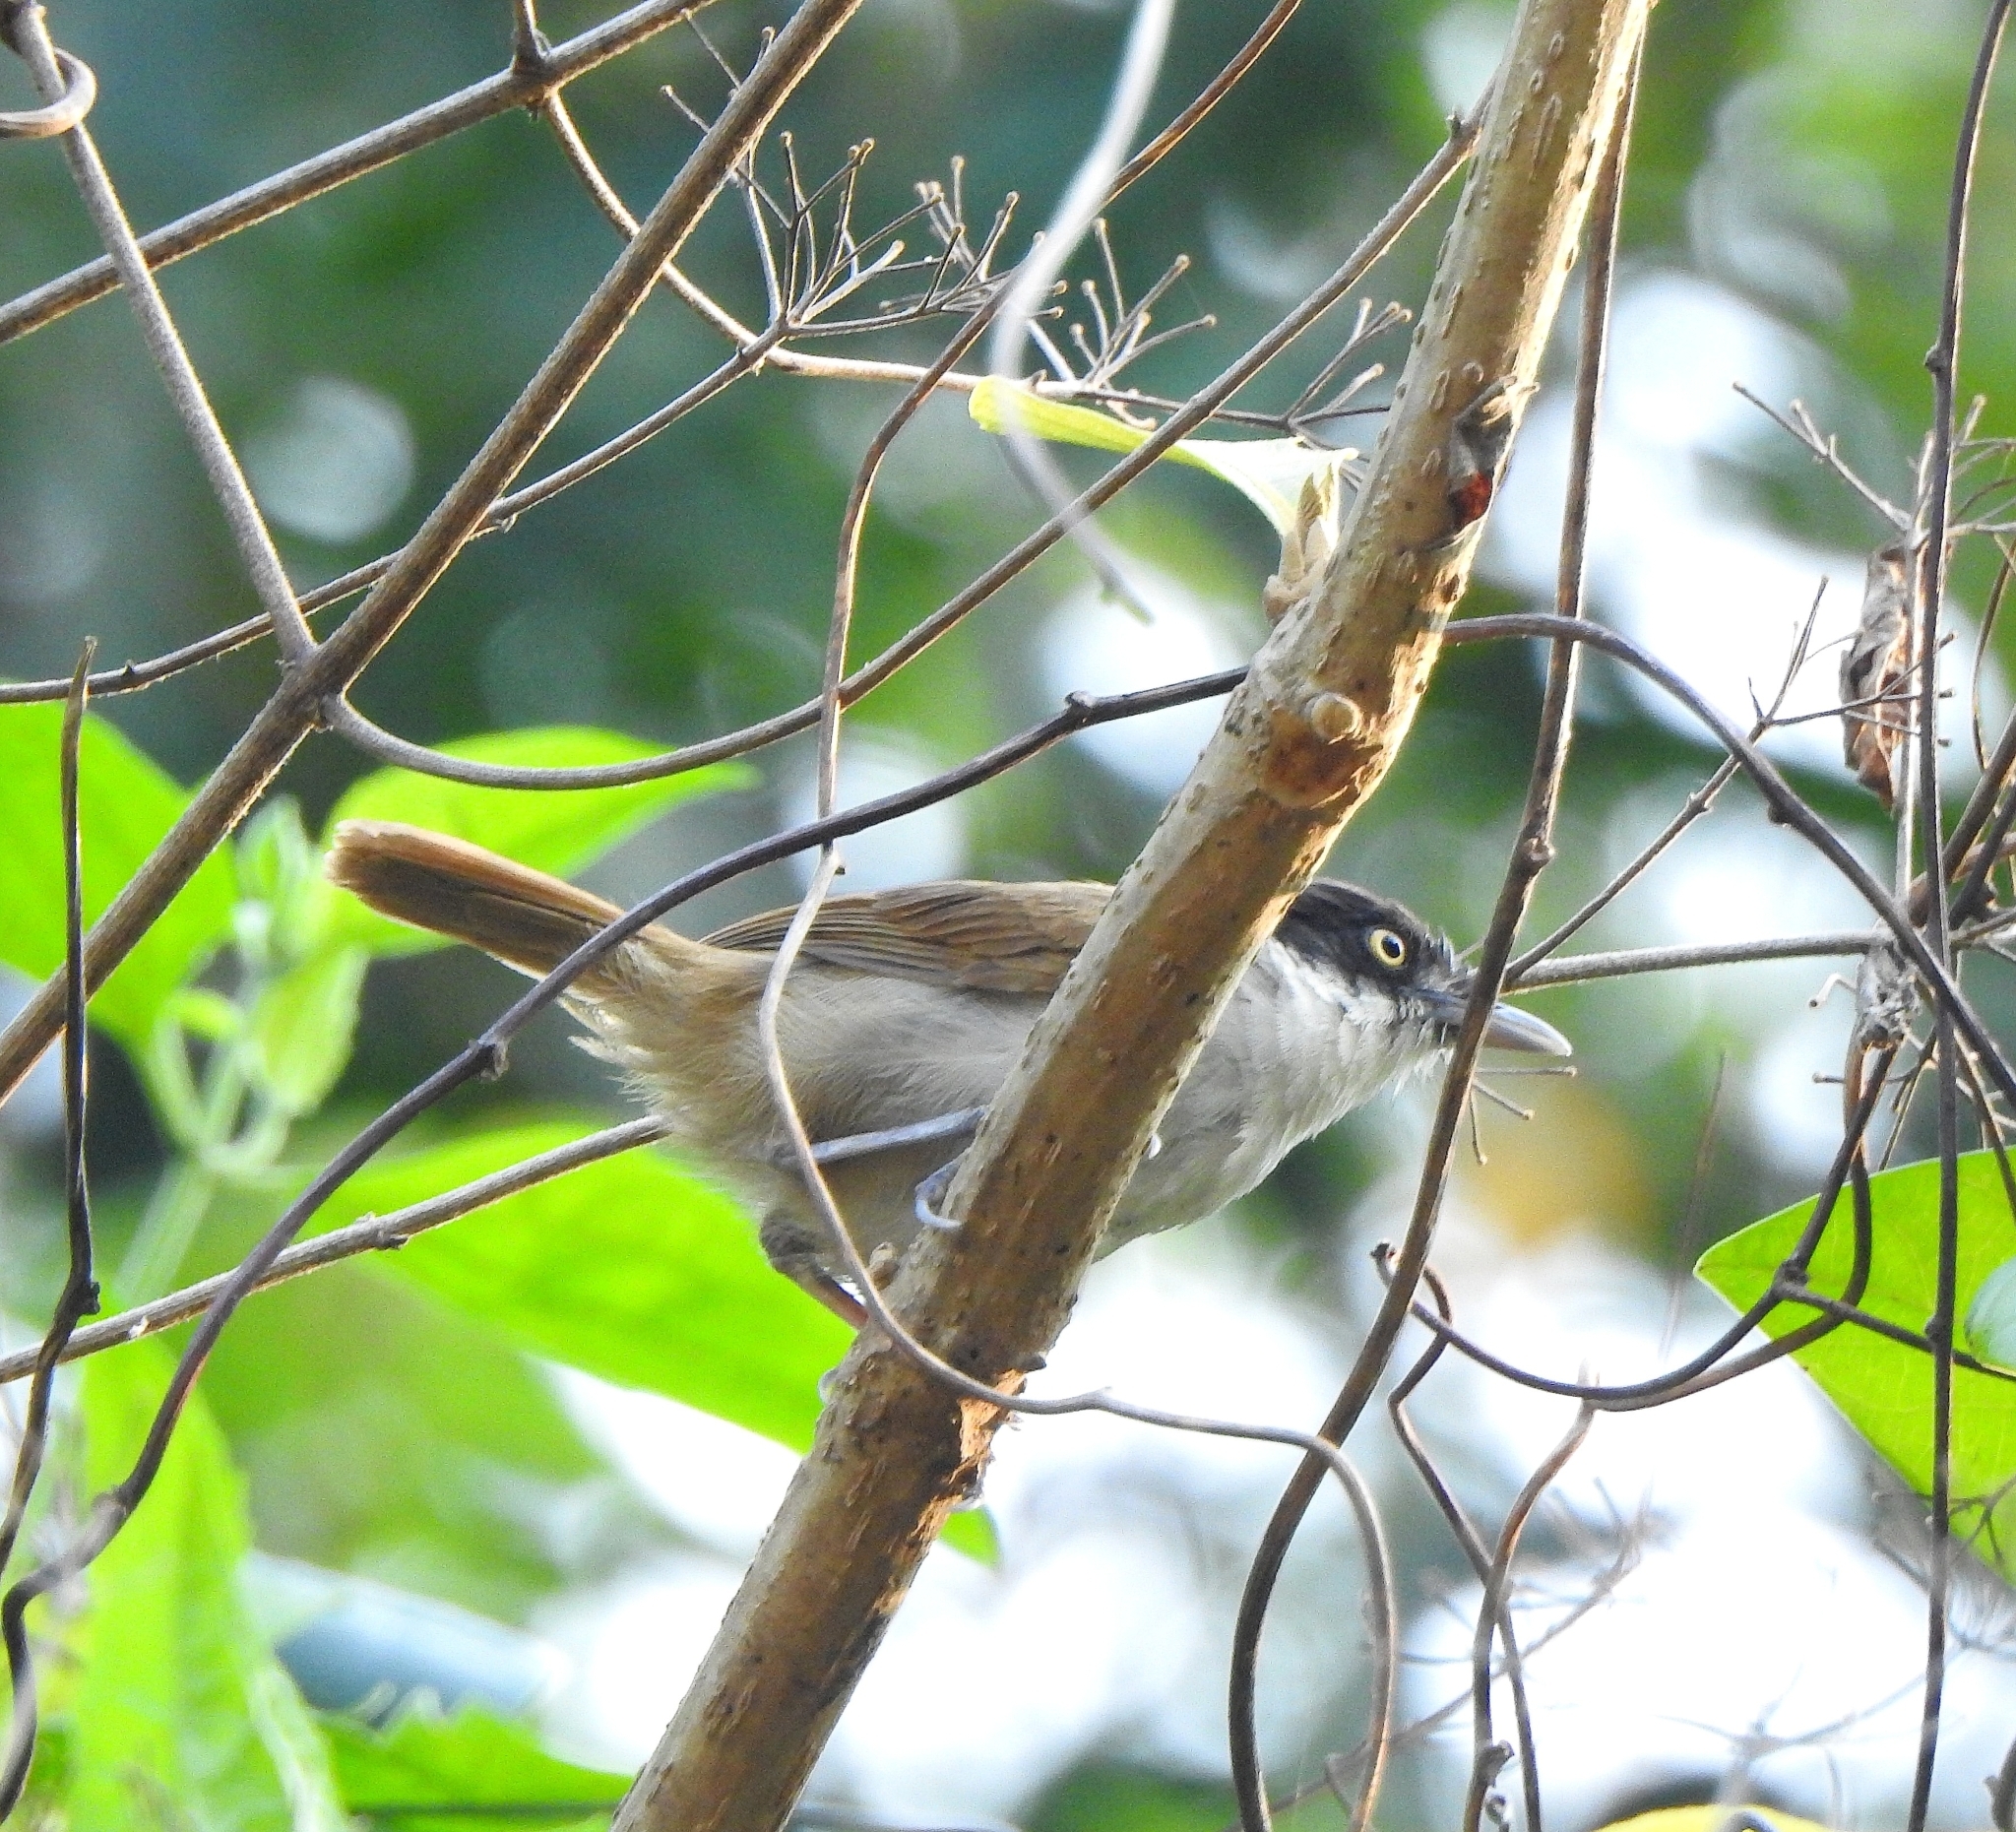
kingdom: Animalia
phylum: Chordata
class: Aves
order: Passeriformes
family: Timaliidae
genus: Rhopocichla
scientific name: Rhopocichla atriceps
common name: Dark-fronted babbler
